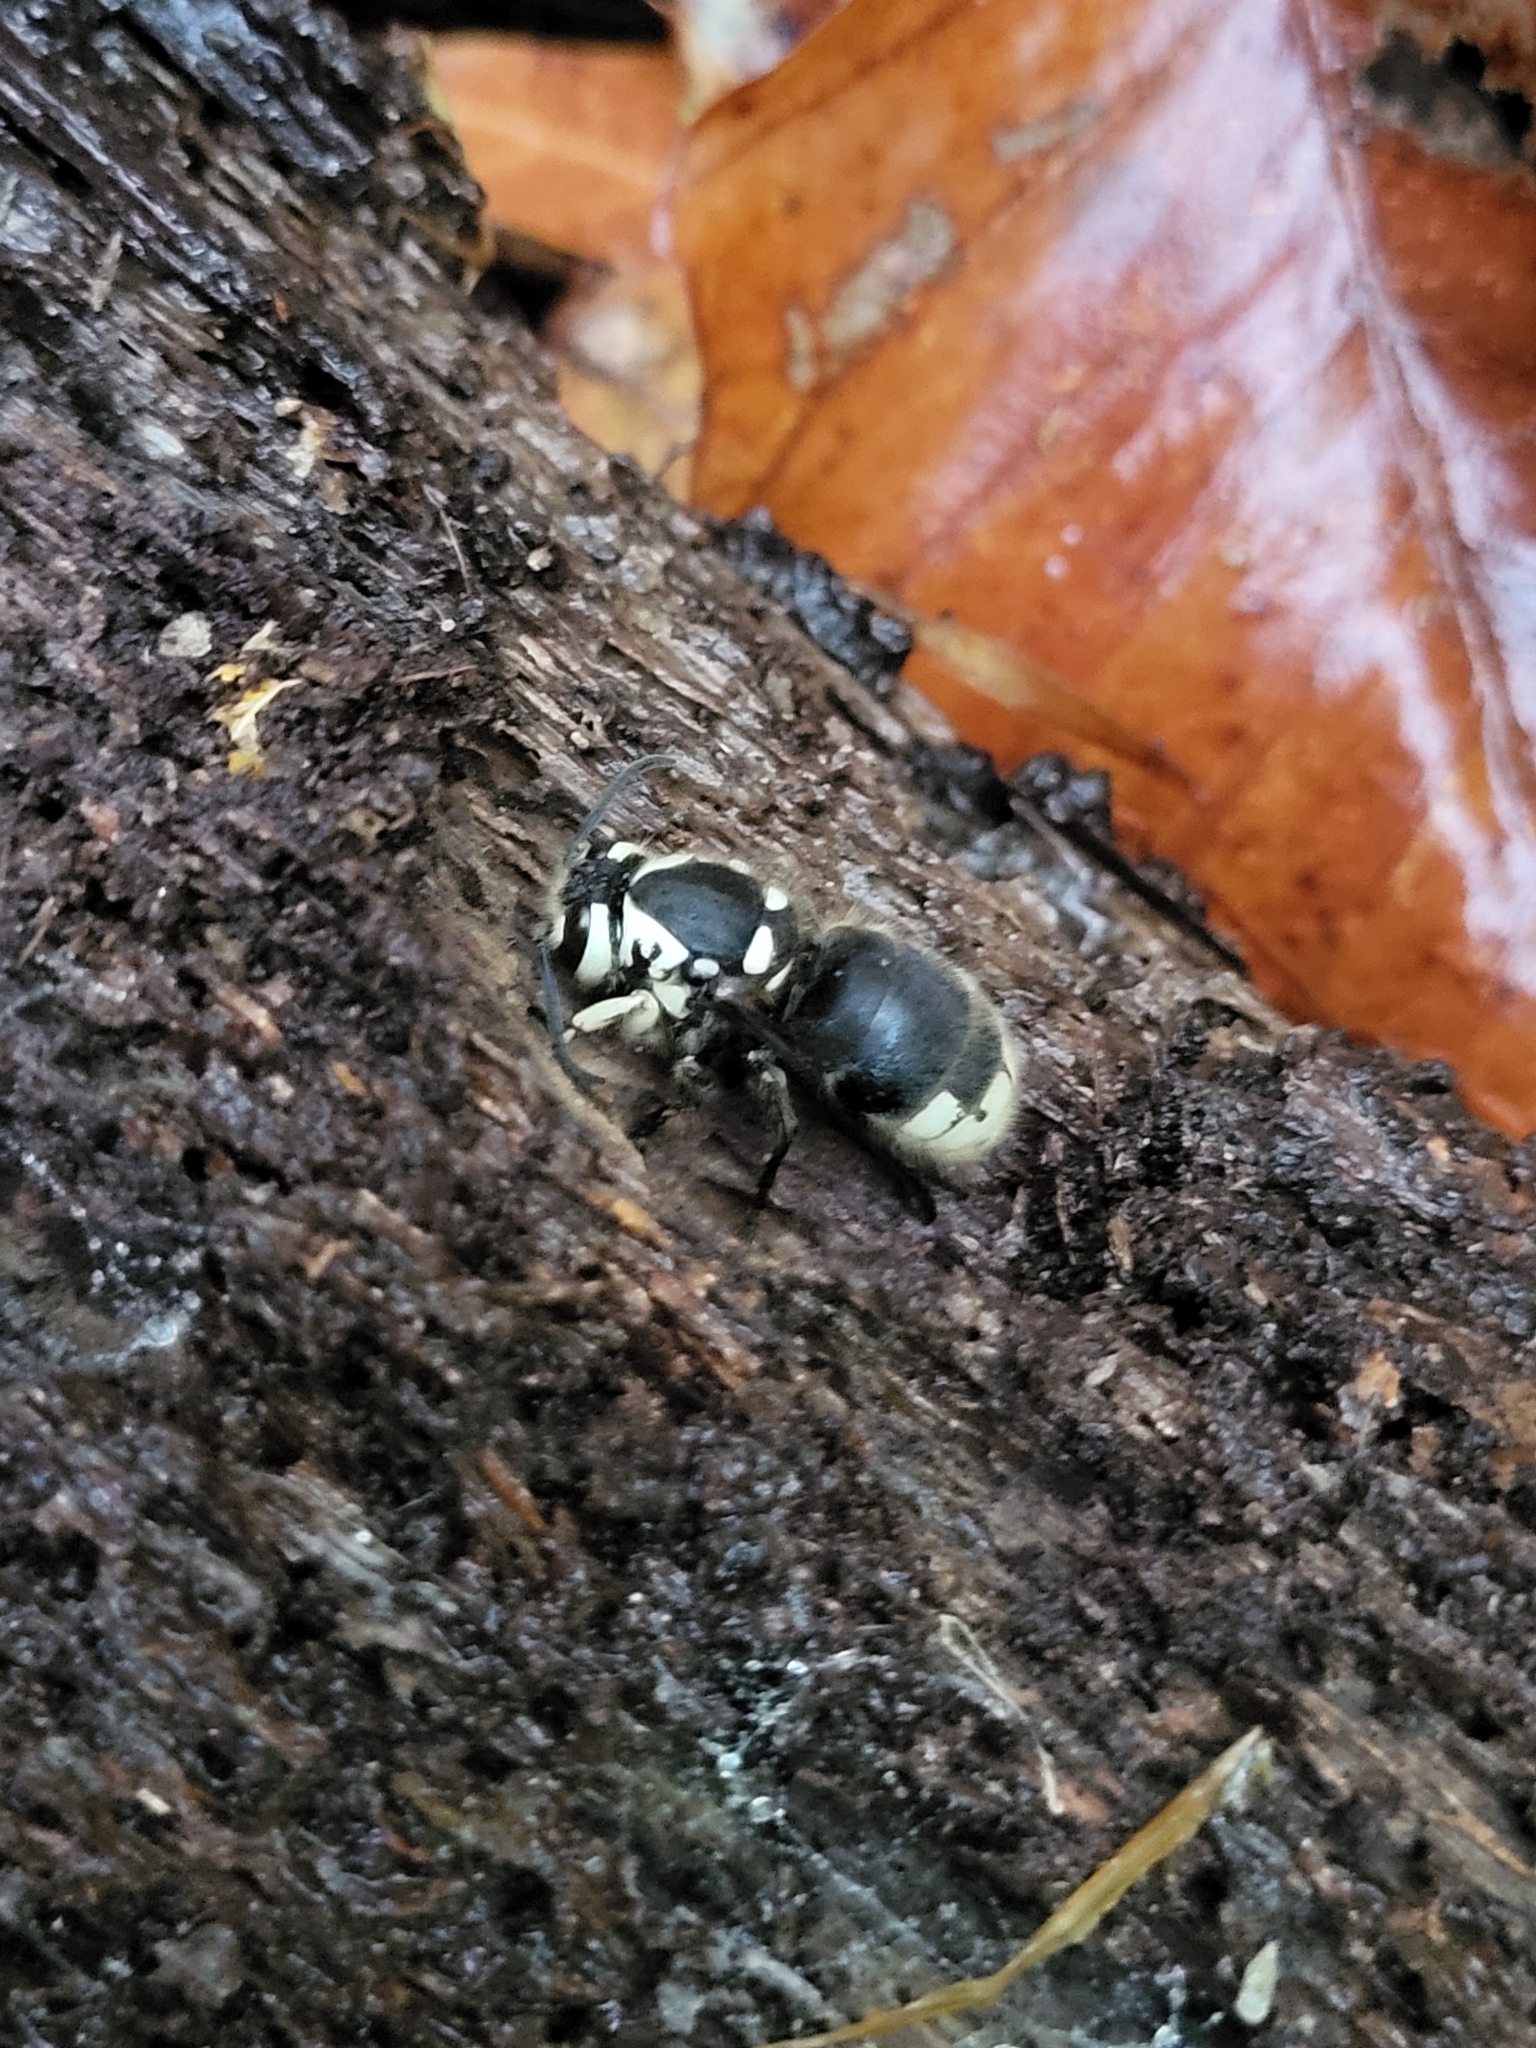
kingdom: Animalia
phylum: Arthropoda
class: Insecta
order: Hymenoptera
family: Vespidae
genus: Dolichovespula
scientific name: Dolichovespula maculata
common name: Bald-faced hornet
